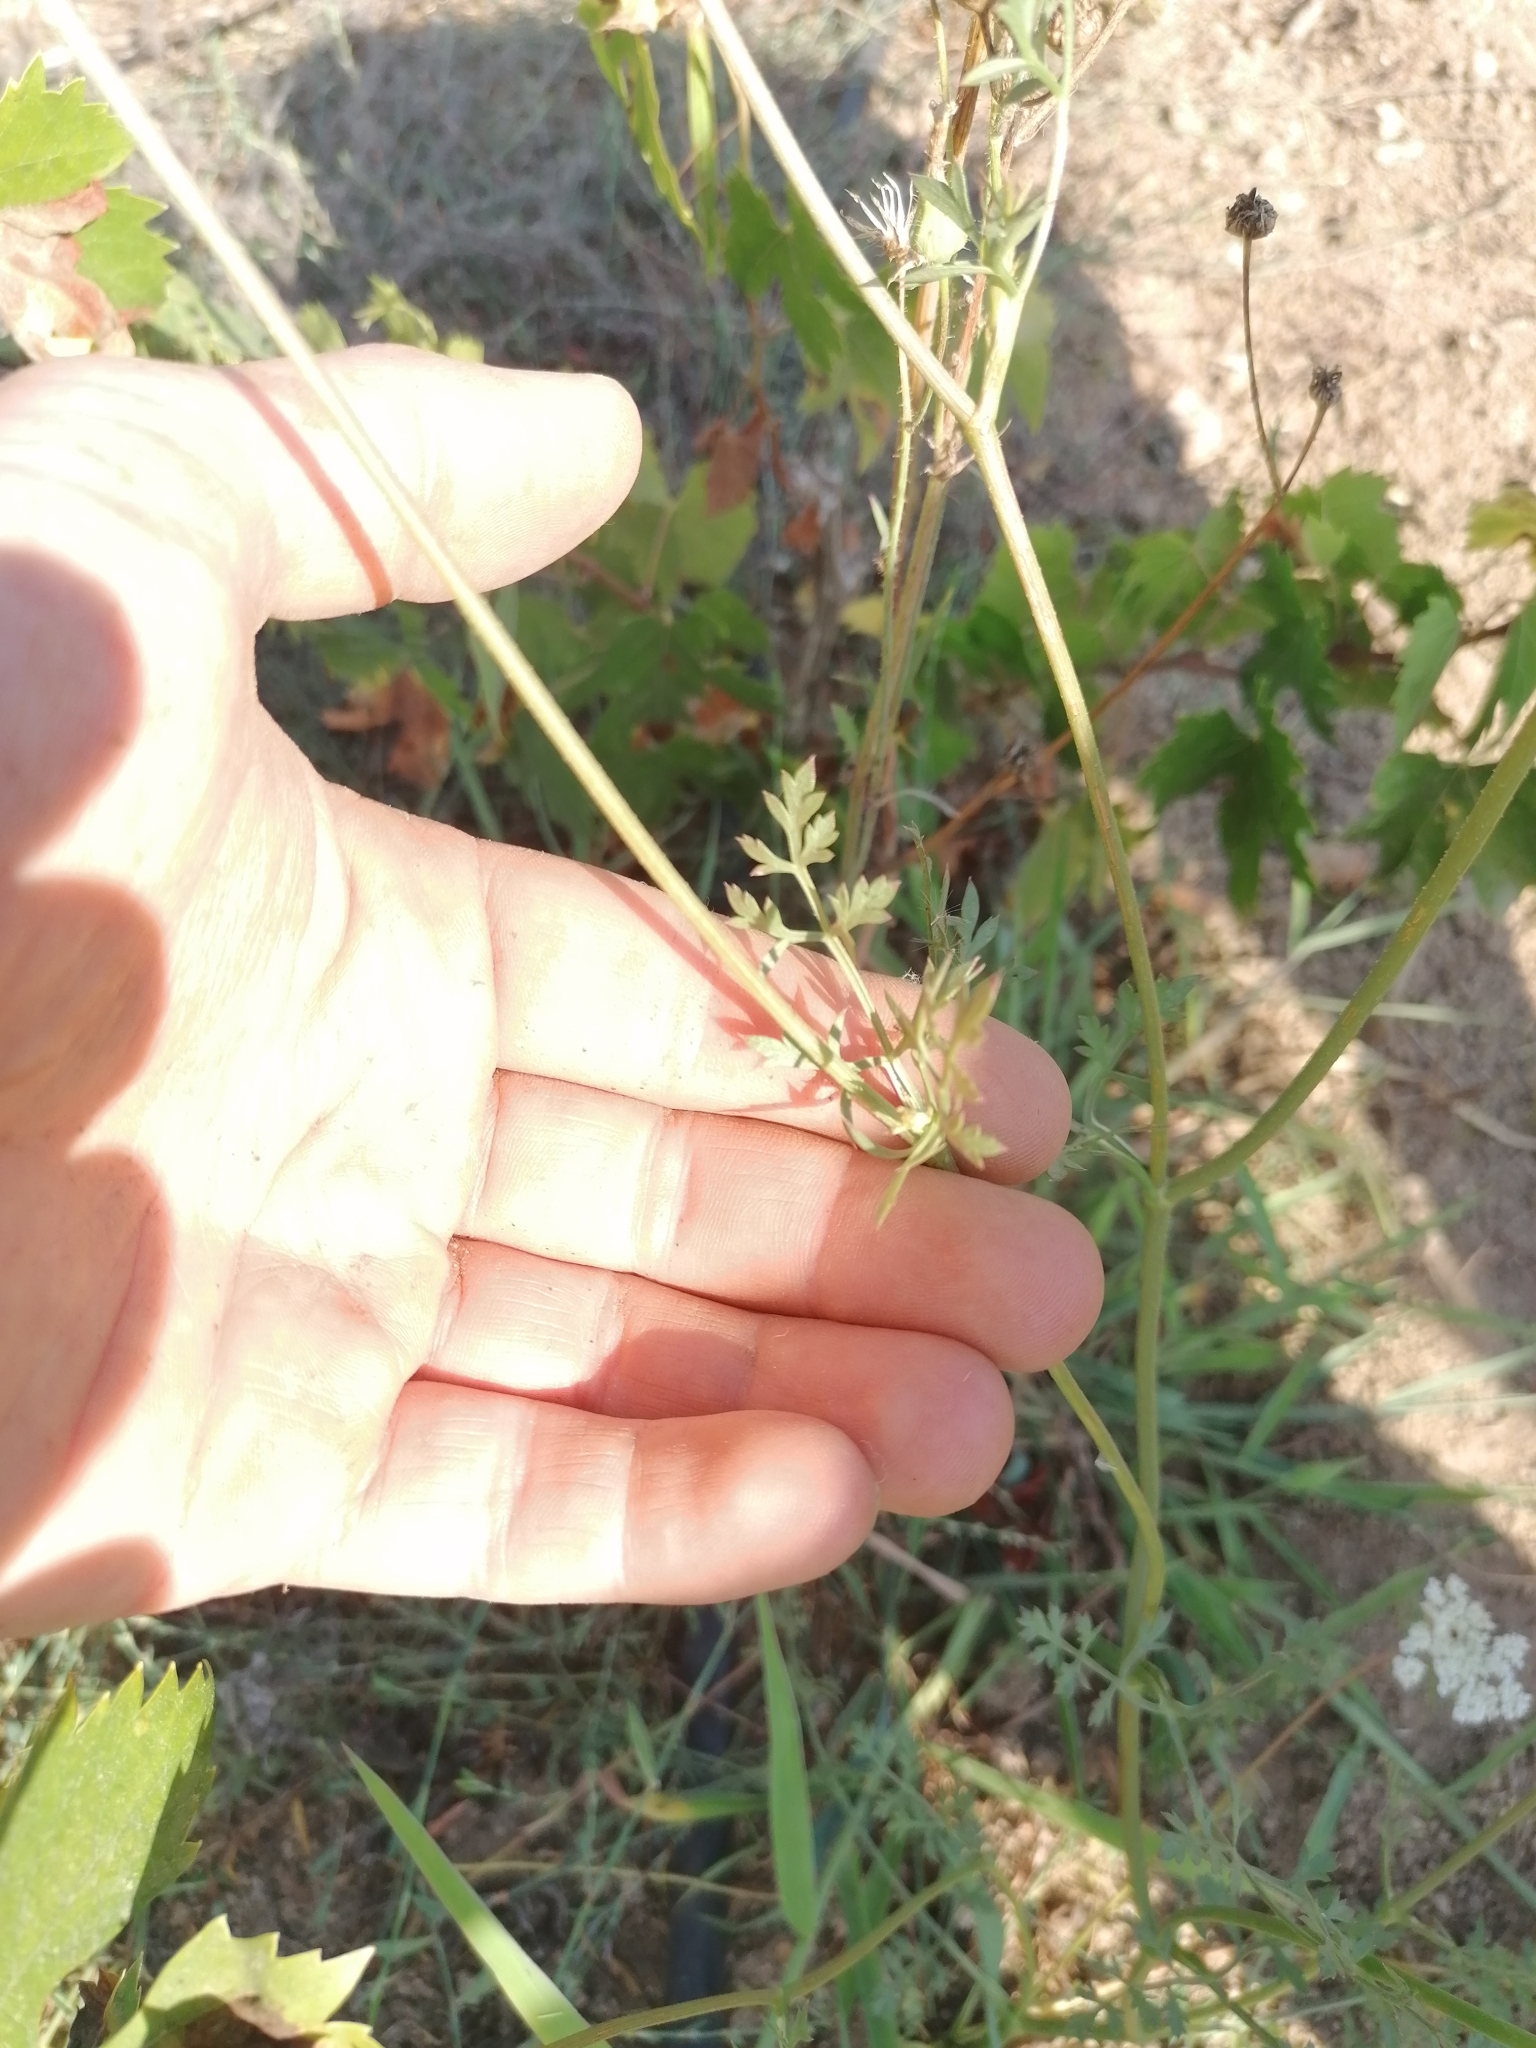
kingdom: Plantae
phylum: Tracheophyta
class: Magnoliopsida
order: Apiales
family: Apiaceae
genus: Daucus
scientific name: Daucus carota
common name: Wild carrot
